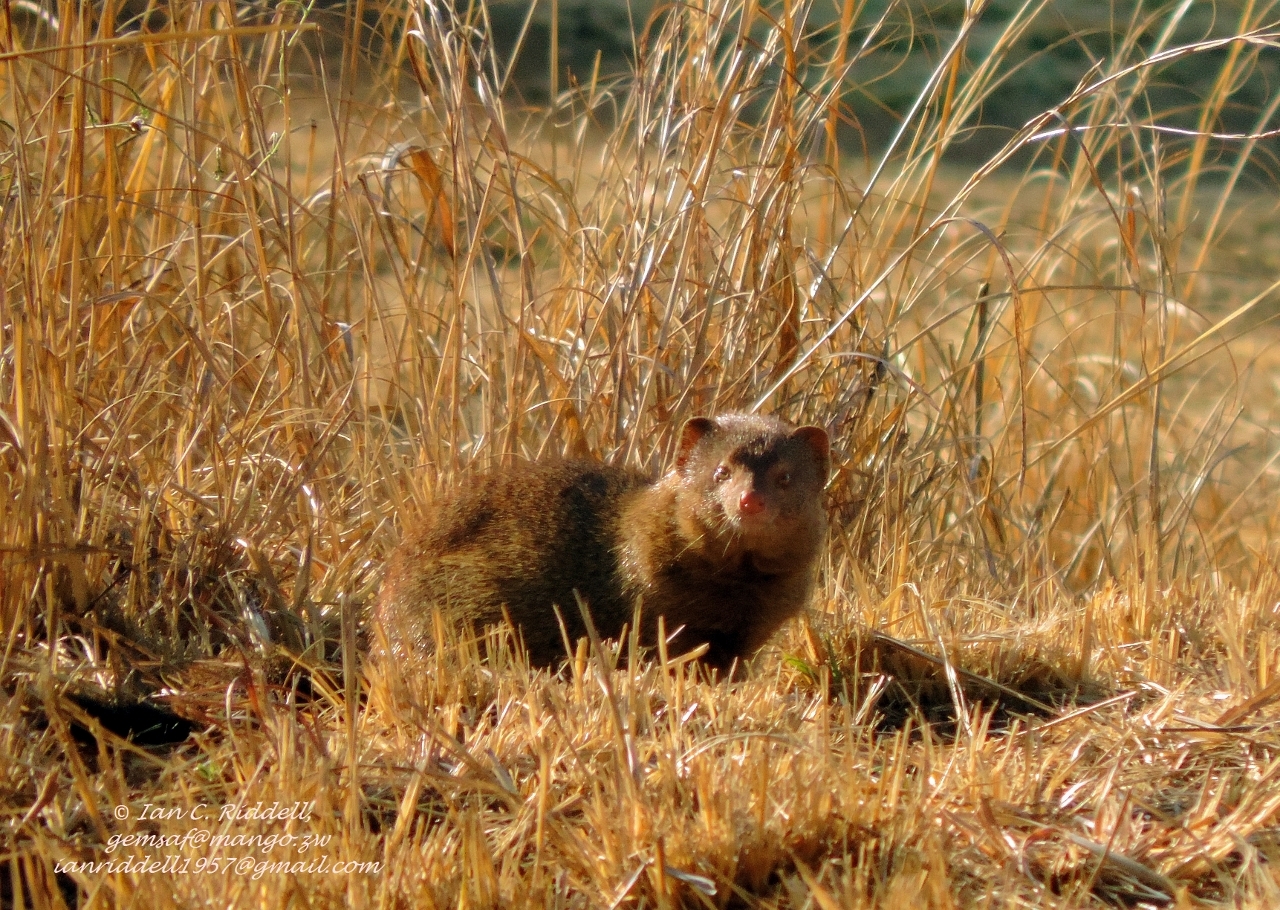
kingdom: Animalia
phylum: Chordata
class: Mammalia
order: Carnivora
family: Herpestidae
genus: Galerella
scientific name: Galerella sanguinea
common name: Slender mongoose
